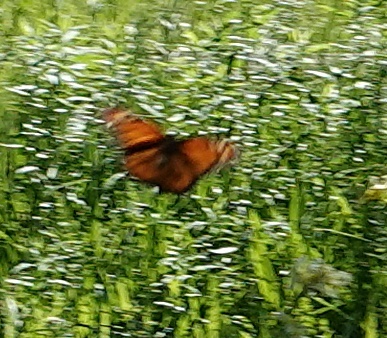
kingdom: Animalia
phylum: Arthropoda
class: Insecta
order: Lepidoptera
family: Nymphalidae
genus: Danaus
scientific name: Danaus plexippus
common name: Monarch
